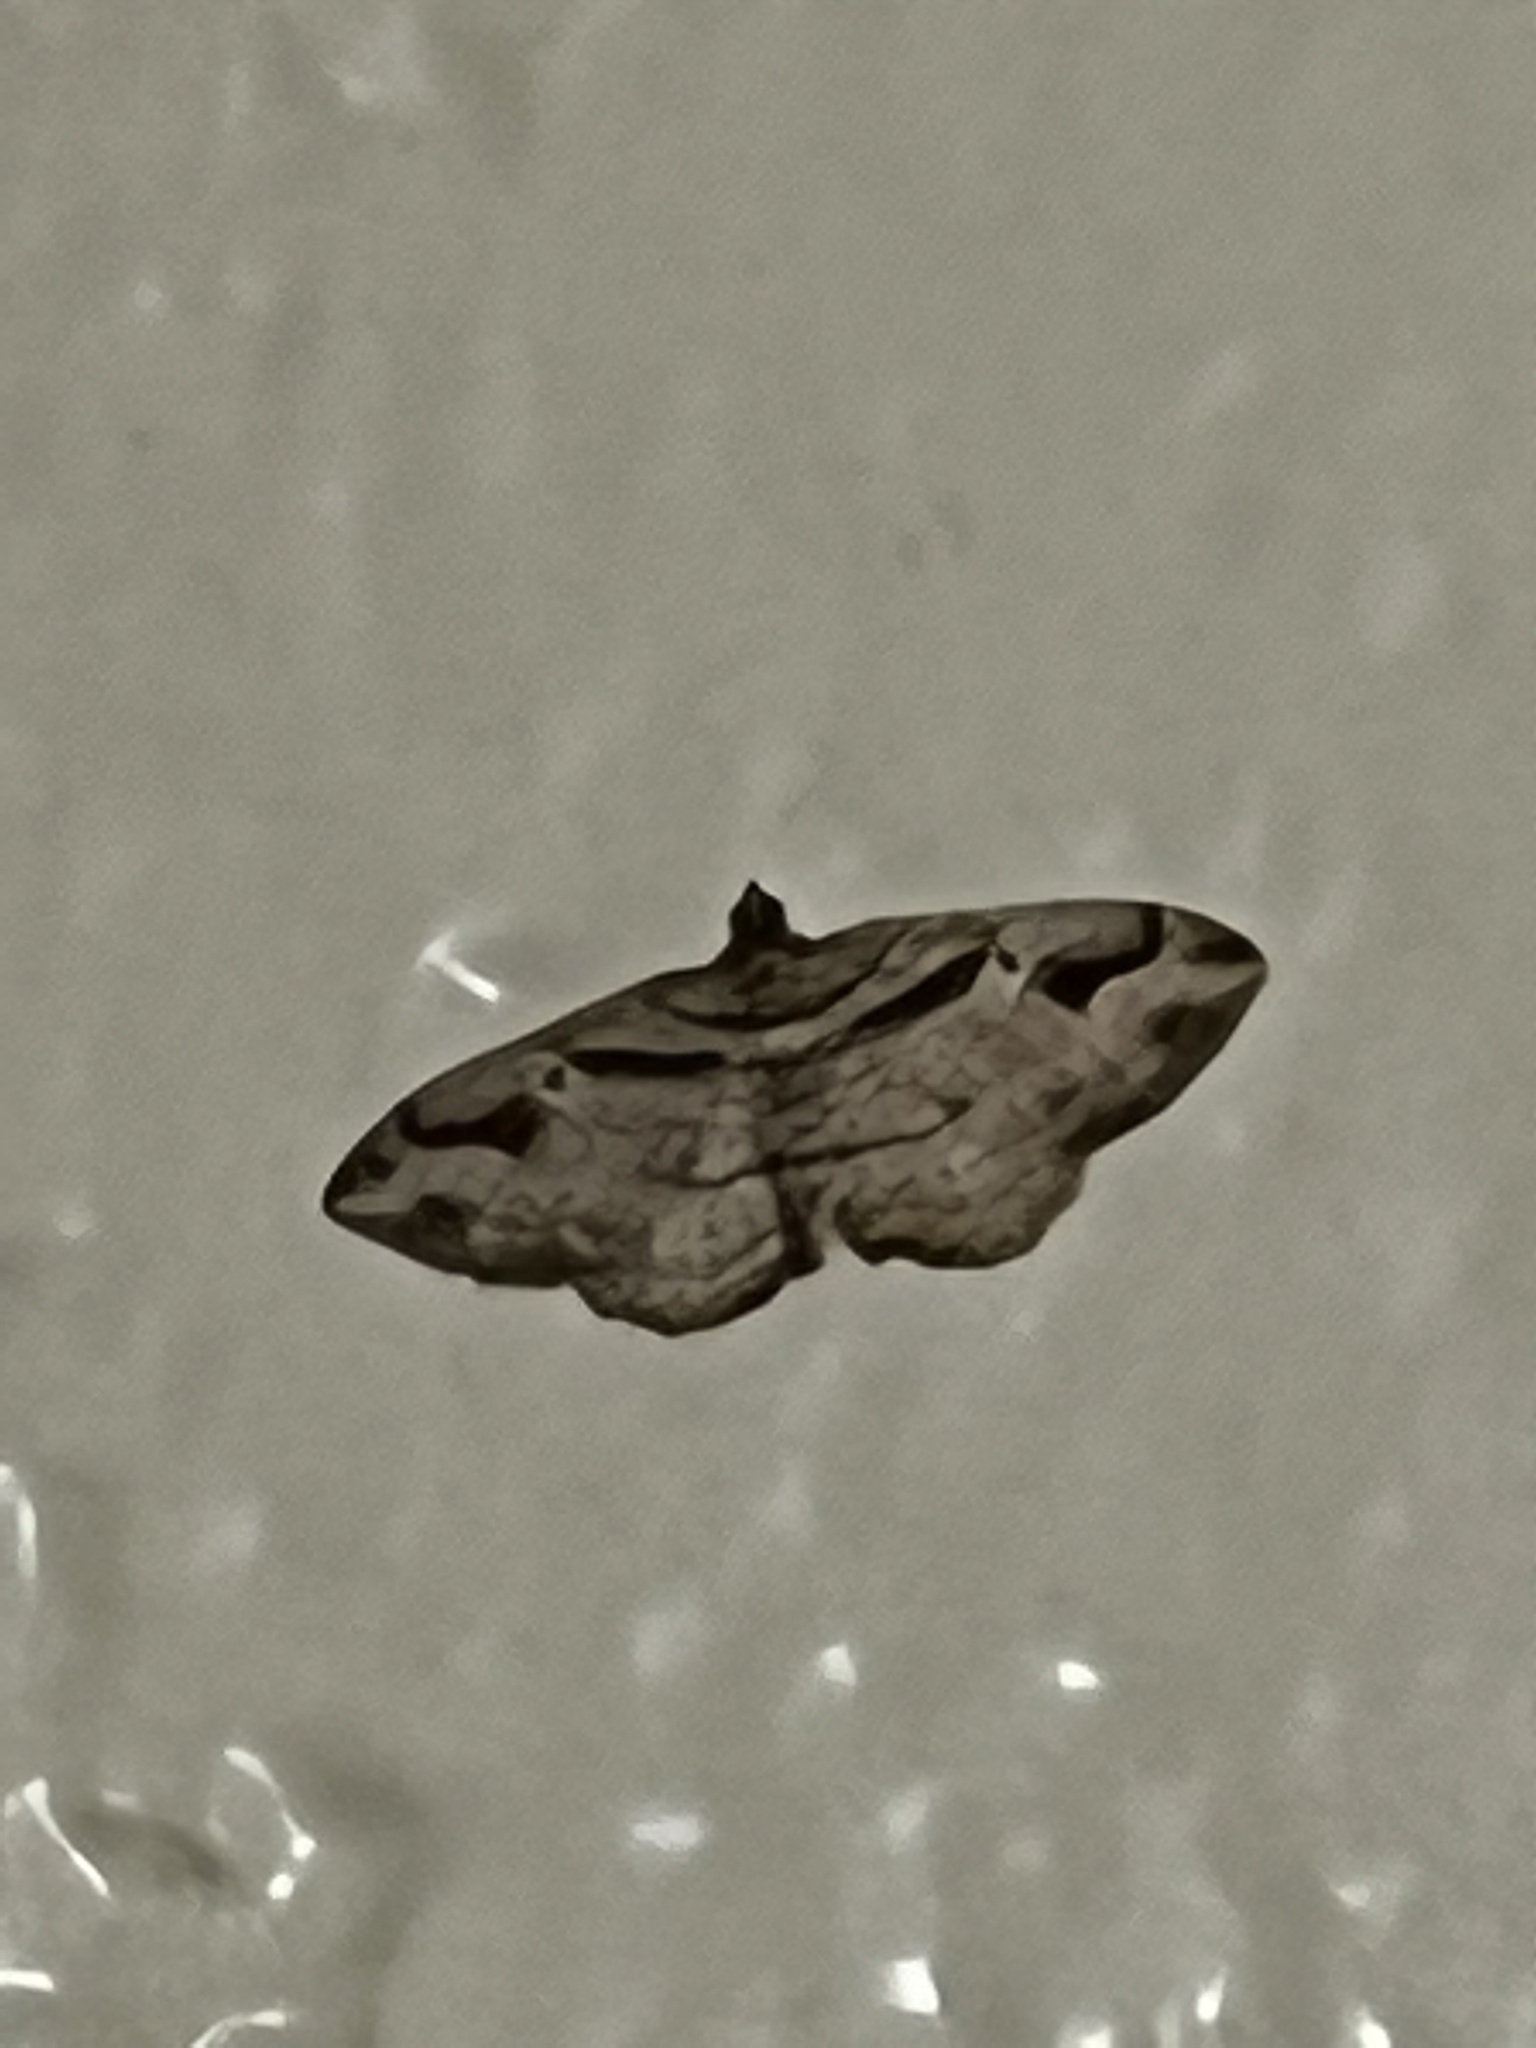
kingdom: Animalia
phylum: Arthropoda
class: Insecta
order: Lepidoptera
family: Geometridae
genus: Costaconvexa
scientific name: Costaconvexa centrostrigaria
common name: Bent-line carpet
